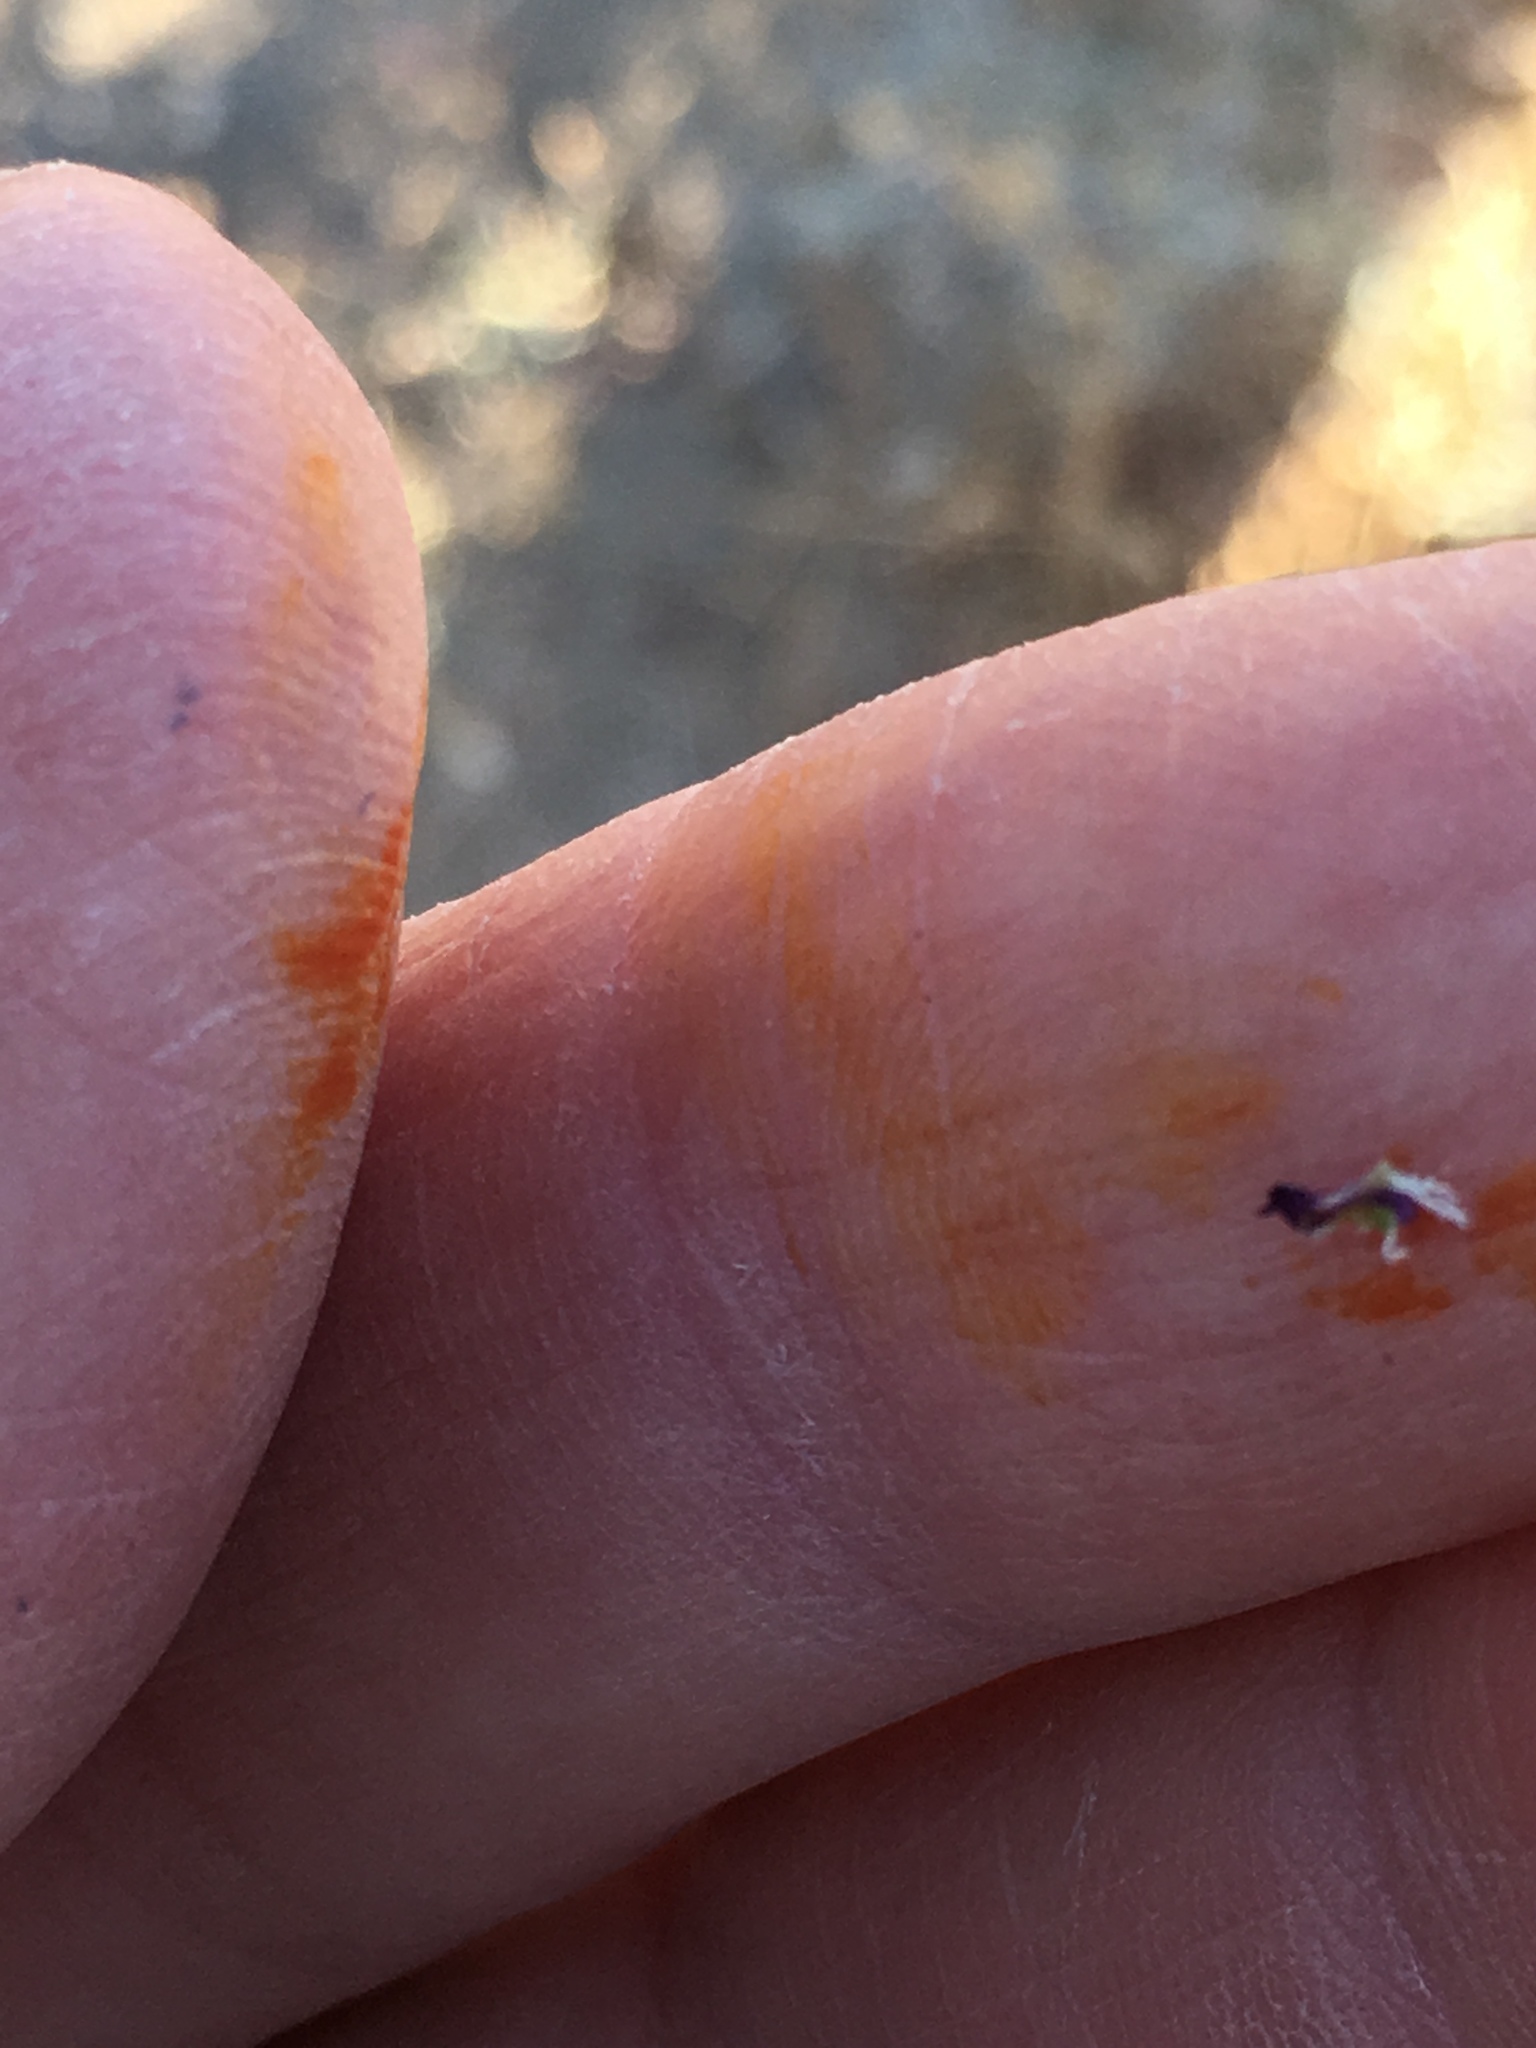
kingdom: Plantae
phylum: Tracheophyta
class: Magnoliopsida
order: Fabales
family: Fabaceae
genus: Psorothamnus
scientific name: Psorothamnus emoryi
